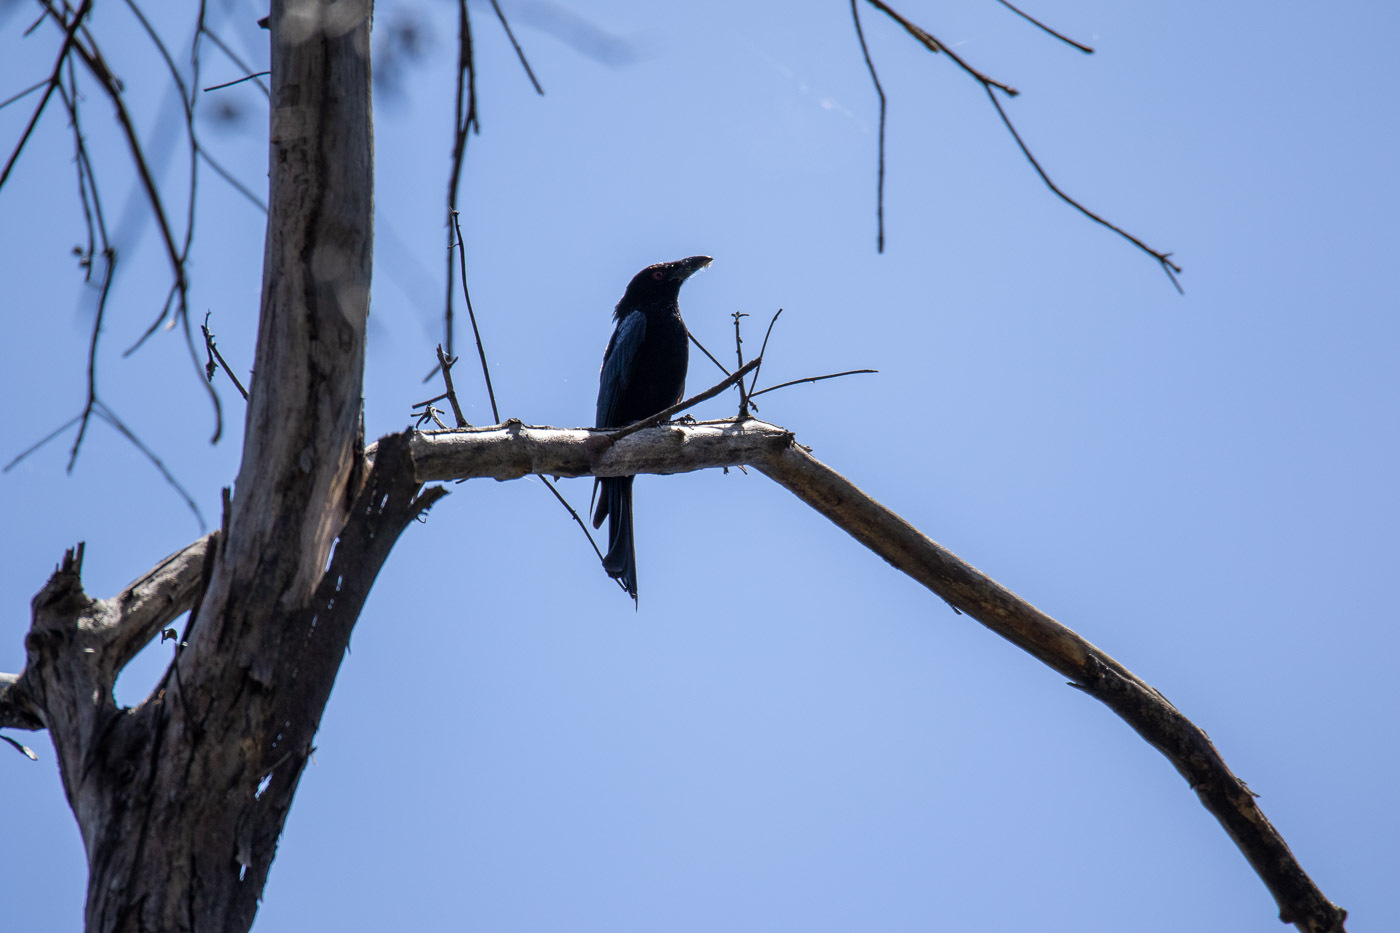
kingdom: Animalia
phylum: Chordata
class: Aves
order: Passeriformes
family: Dicruridae
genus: Dicrurus
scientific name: Dicrurus bracteatus
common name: Spangled drongo
